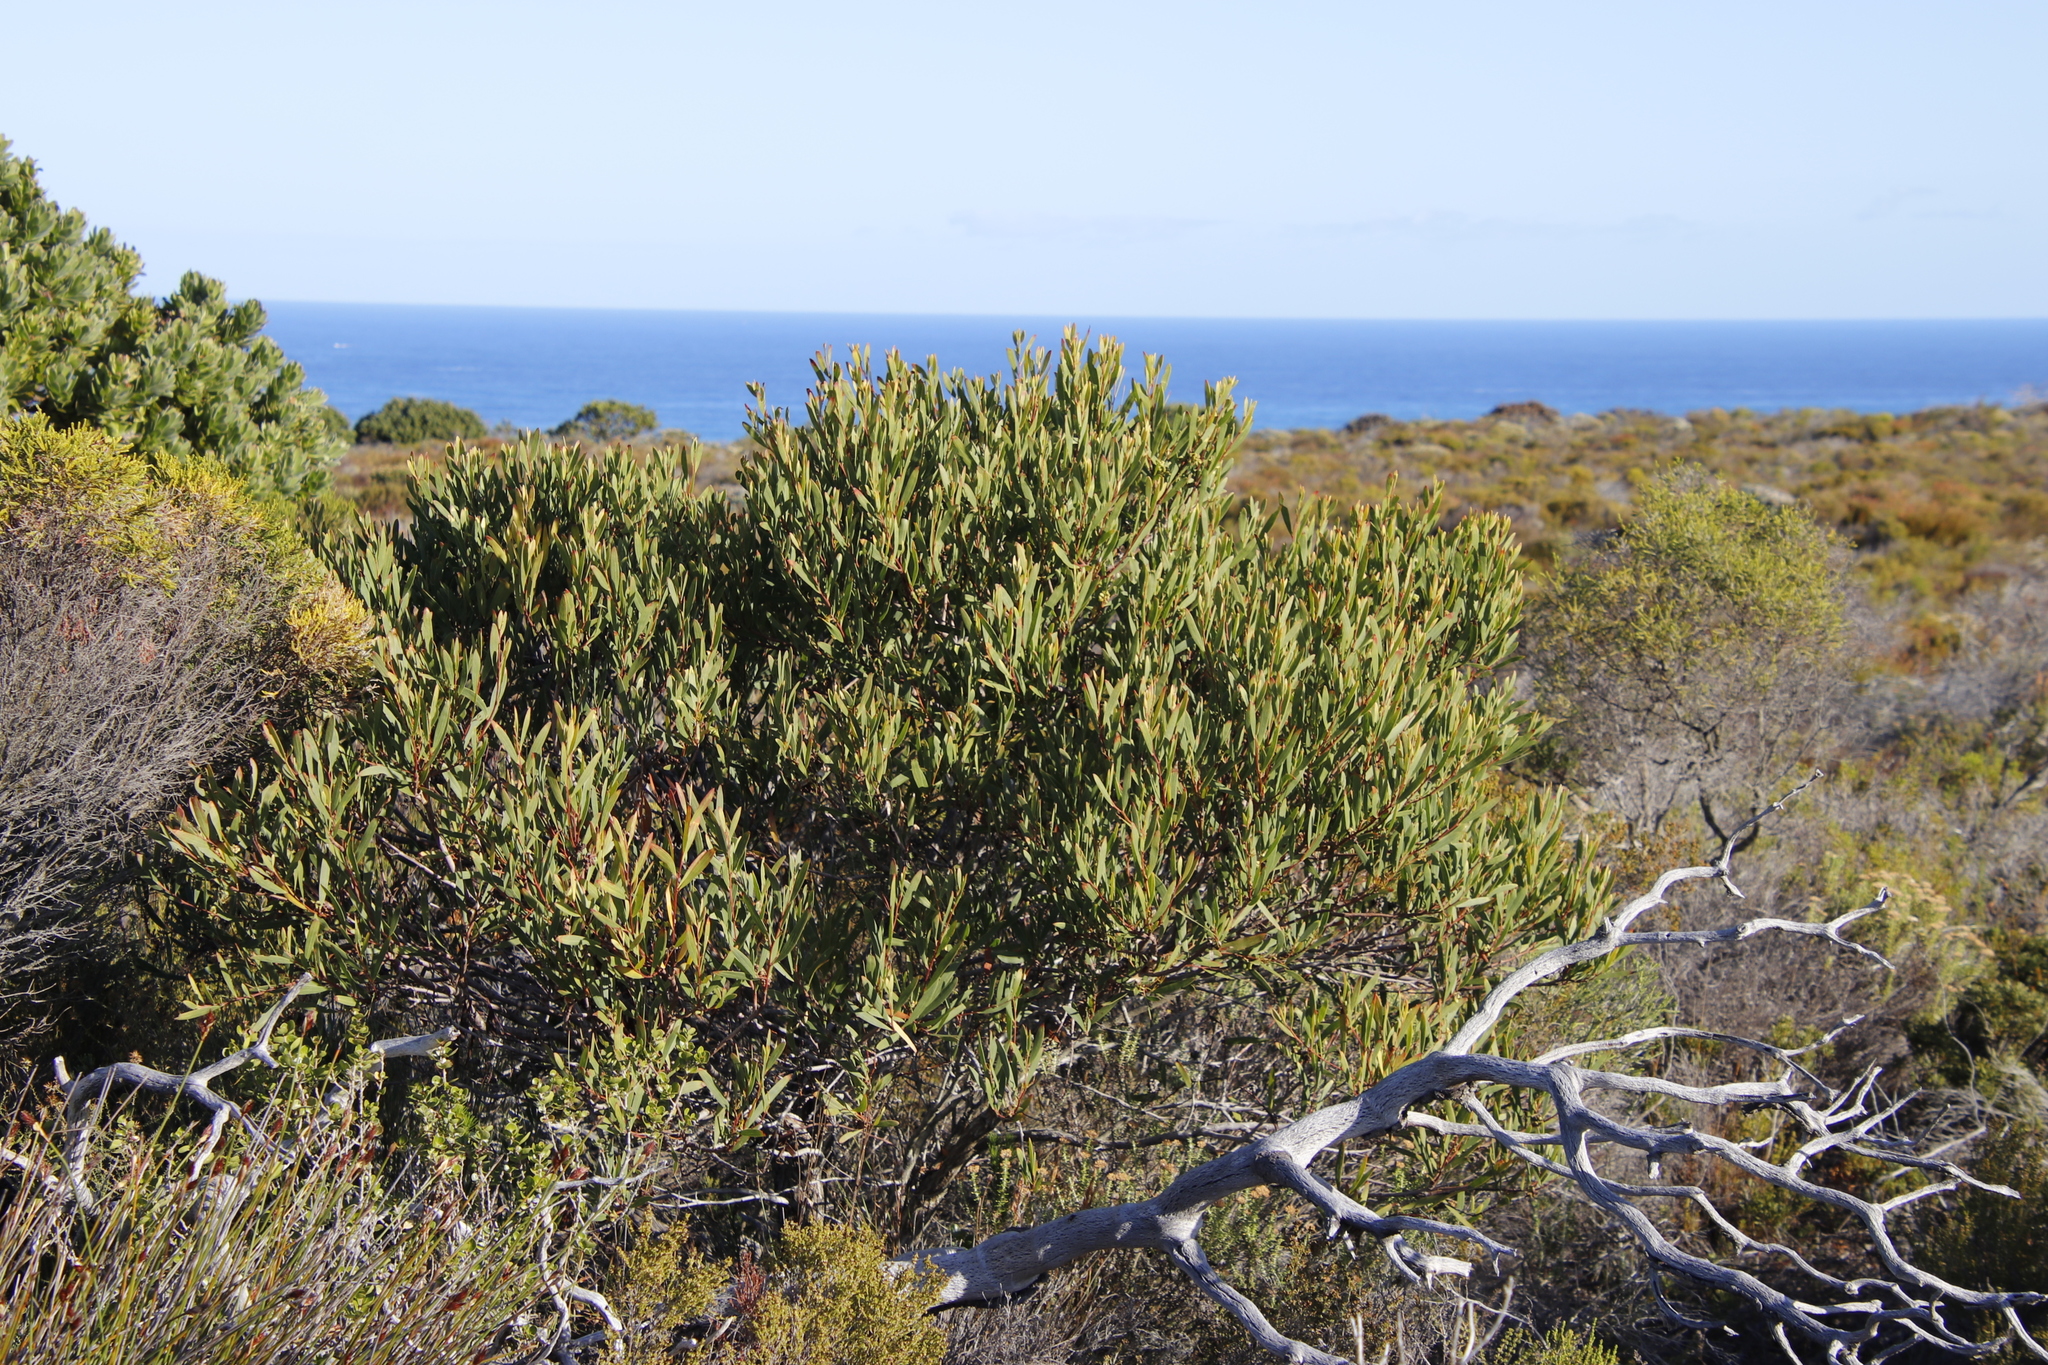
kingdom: Plantae
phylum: Tracheophyta
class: Magnoliopsida
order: Fabales
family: Fabaceae
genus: Acacia
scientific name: Acacia longifolia
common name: Sydney golden wattle
